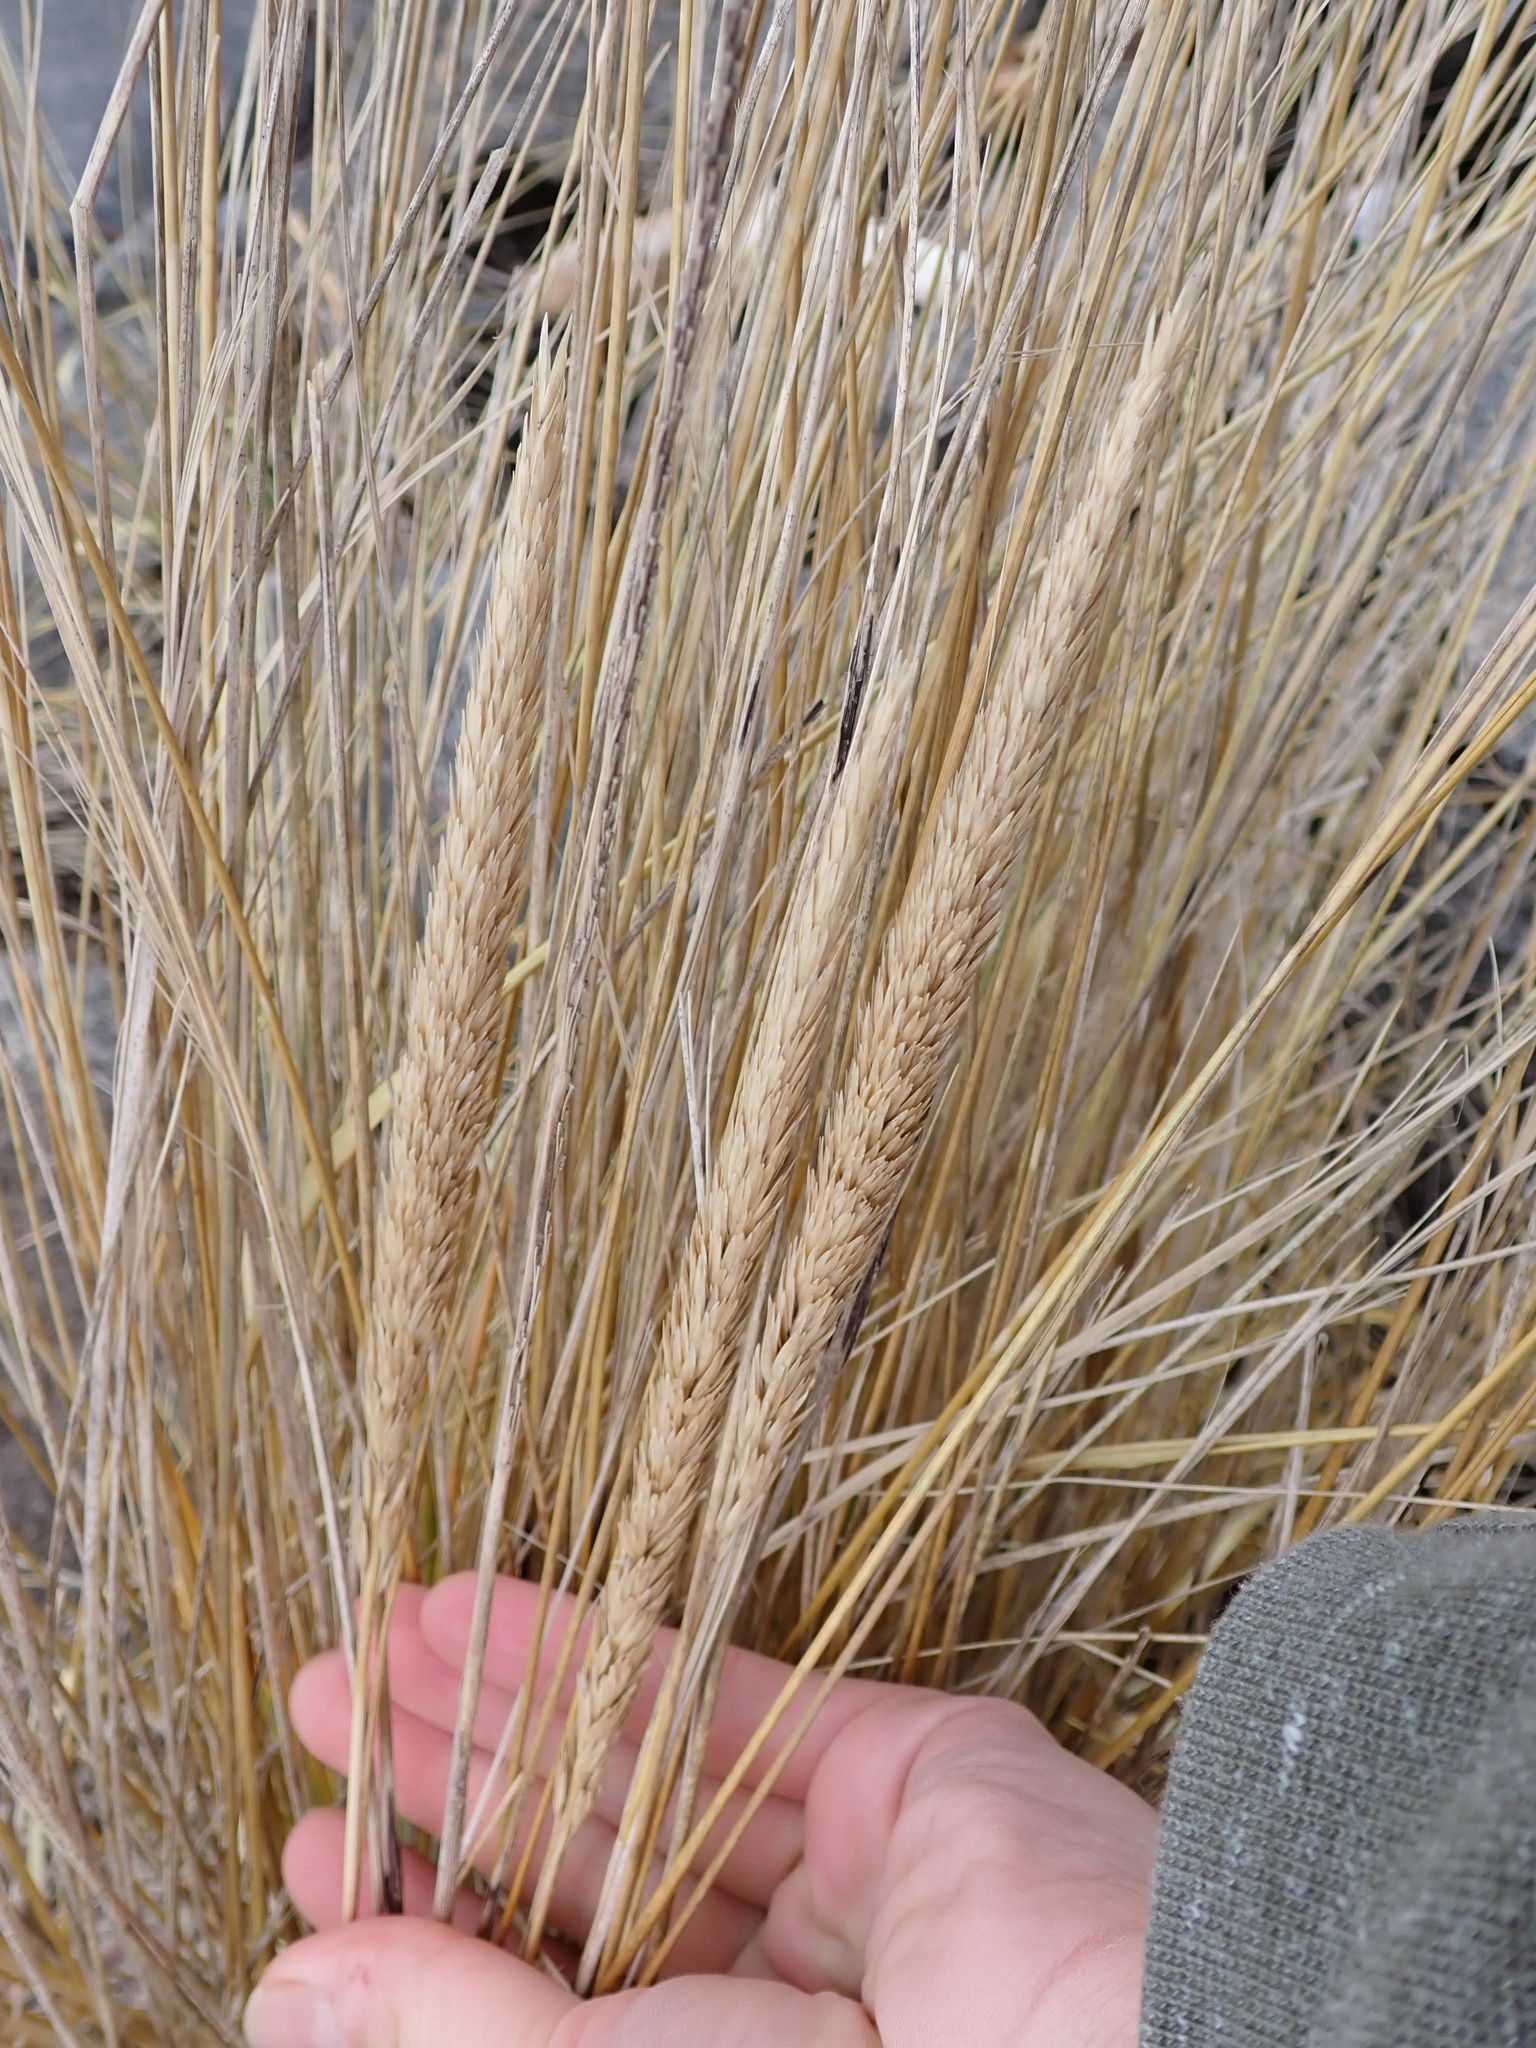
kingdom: Plantae
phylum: Tracheophyta
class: Liliopsida
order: Poales
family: Poaceae
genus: Calamagrostis
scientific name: Calamagrostis breviligulata
